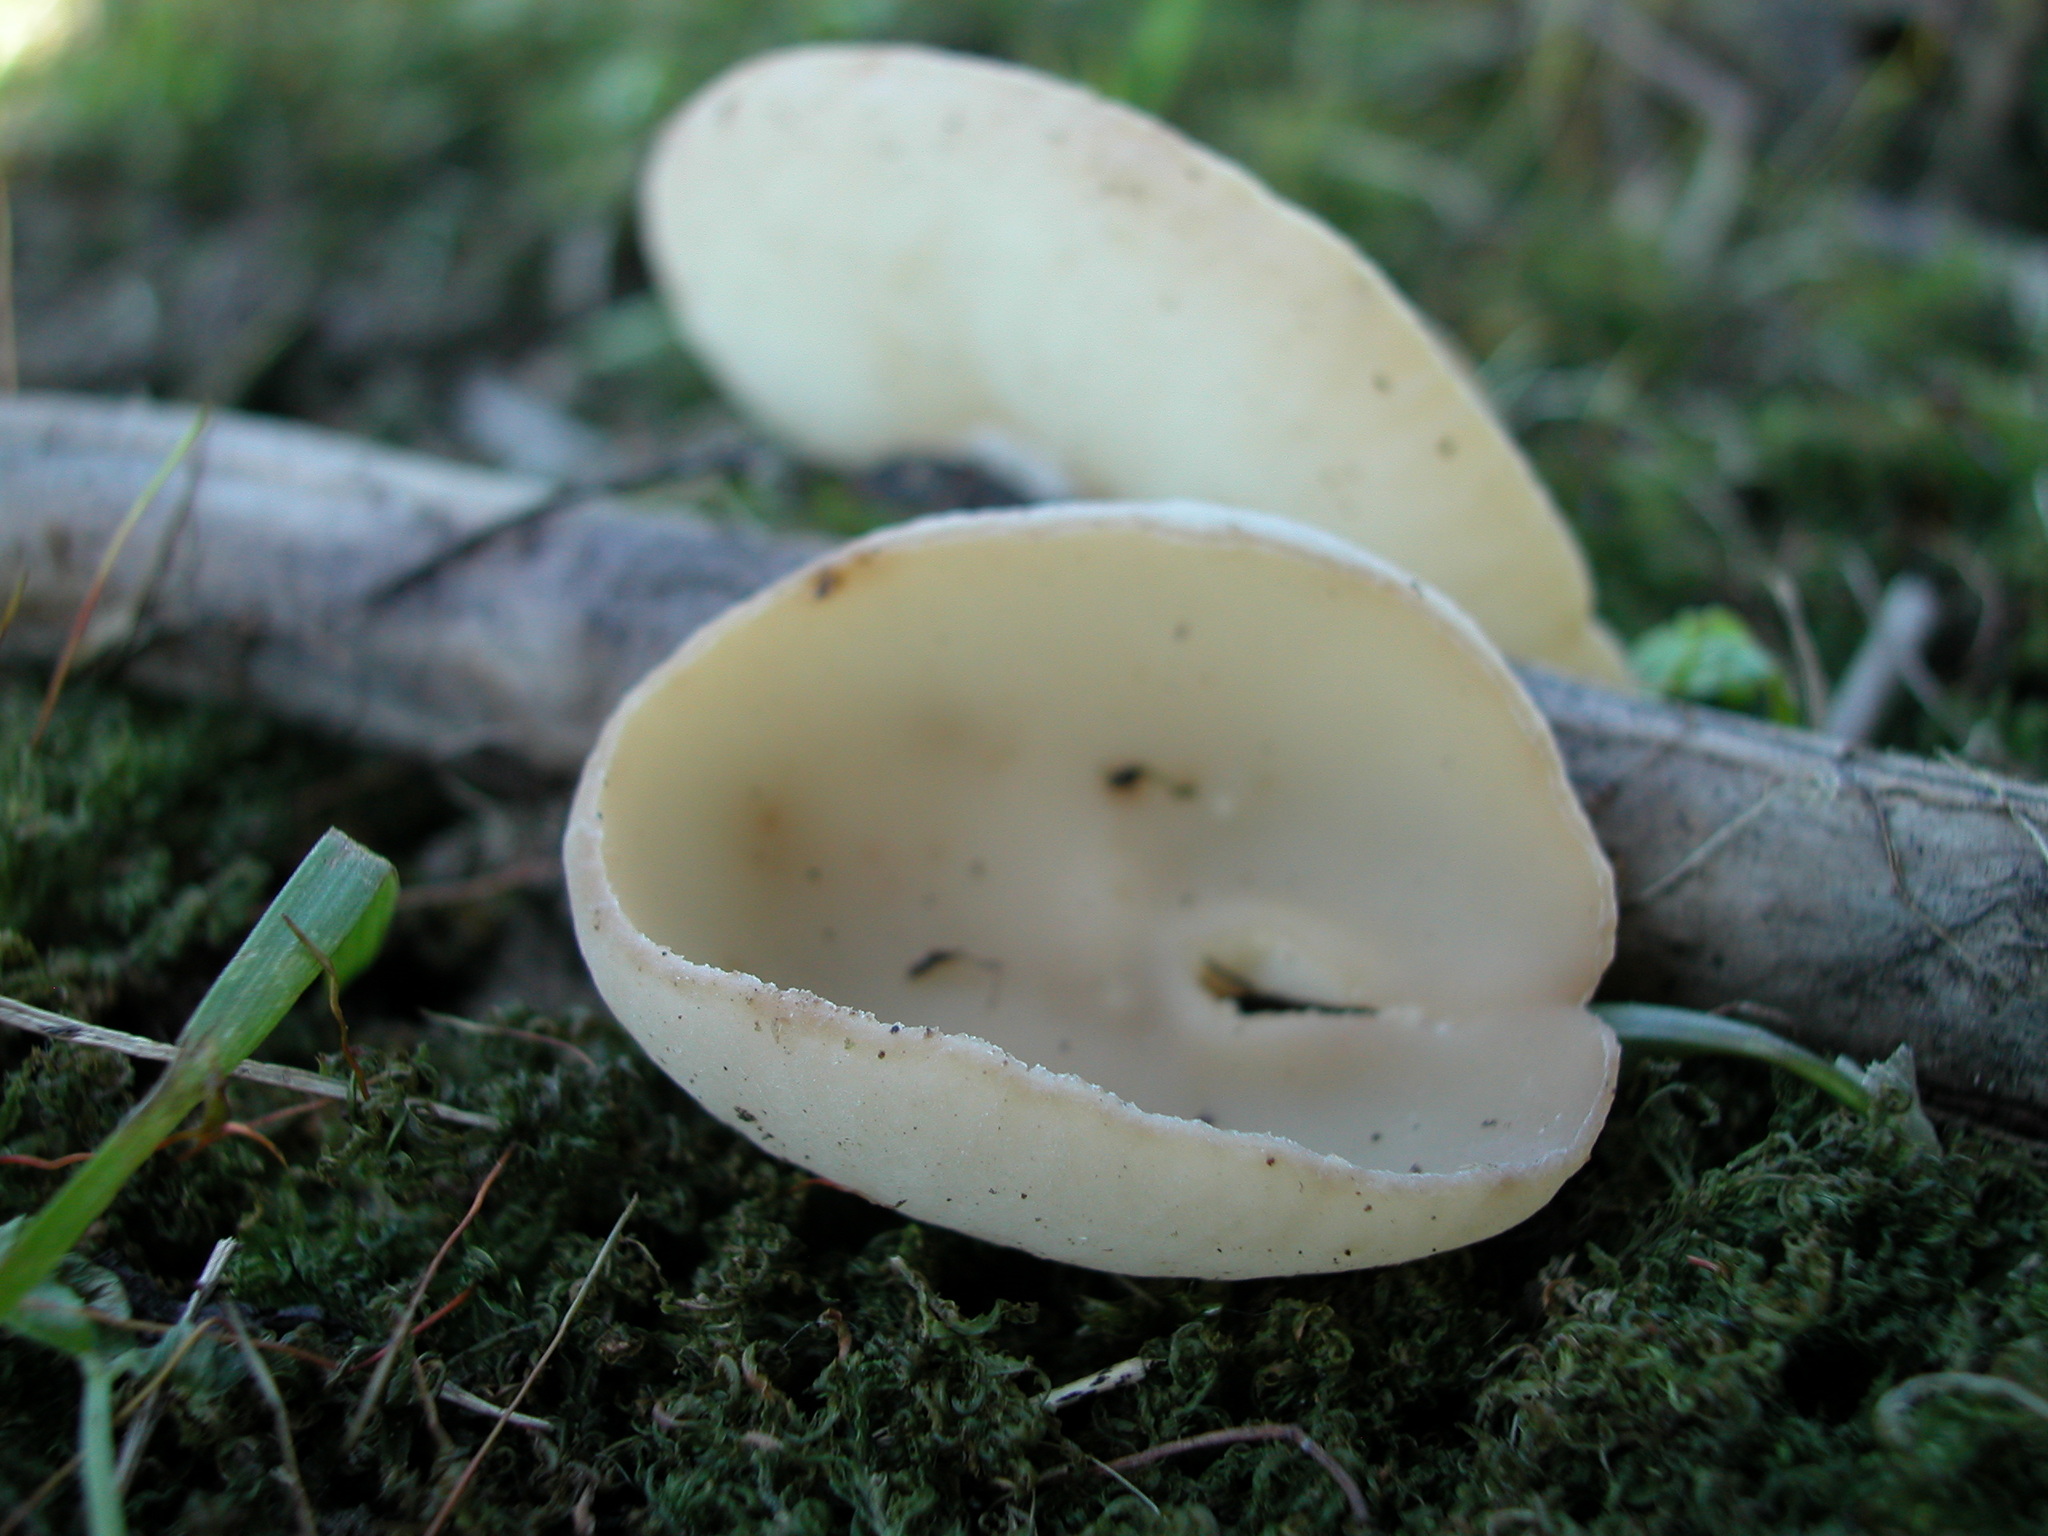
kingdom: Fungi
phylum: Ascomycota
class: Pezizomycetes
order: Pezizales
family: Sarcoscyphaceae
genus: Sarcoscypha
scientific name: Sarcoscypha vassiljevae
